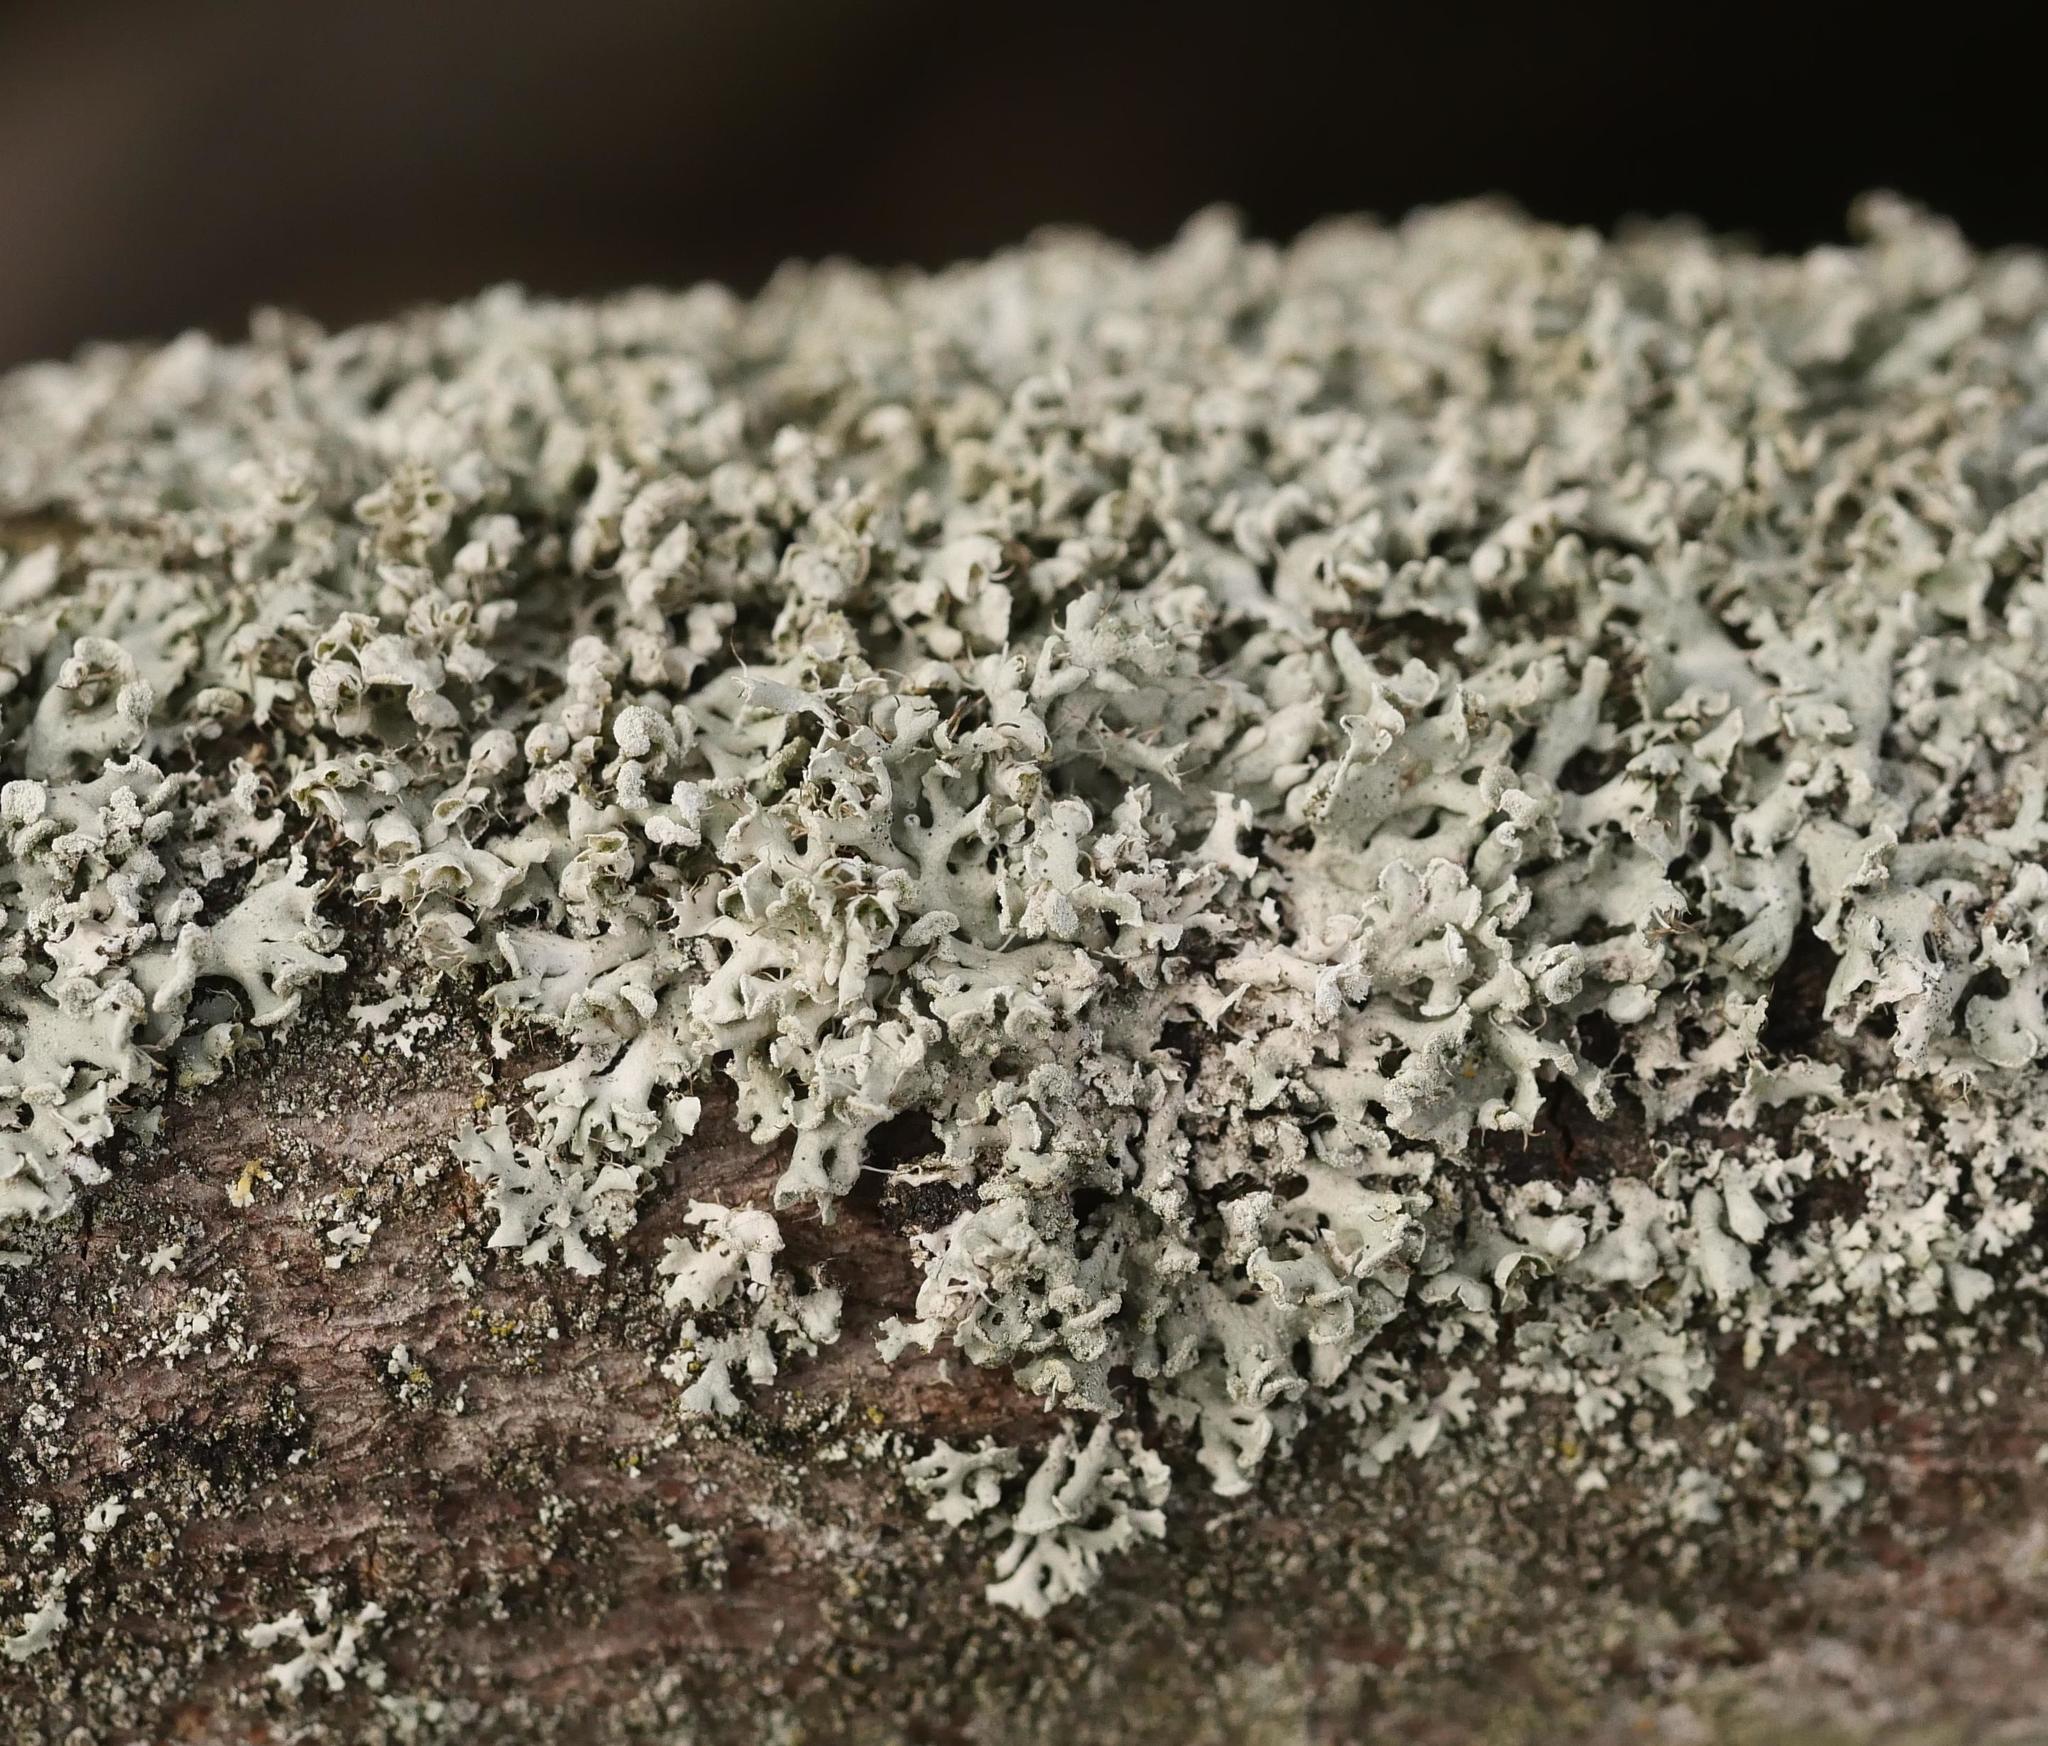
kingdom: Fungi
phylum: Ascomycota
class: Lecanoromycetes
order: Caliciales
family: Physciaceae
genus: Physcia
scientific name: Physcia tenella
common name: Fringed rosette lichen
